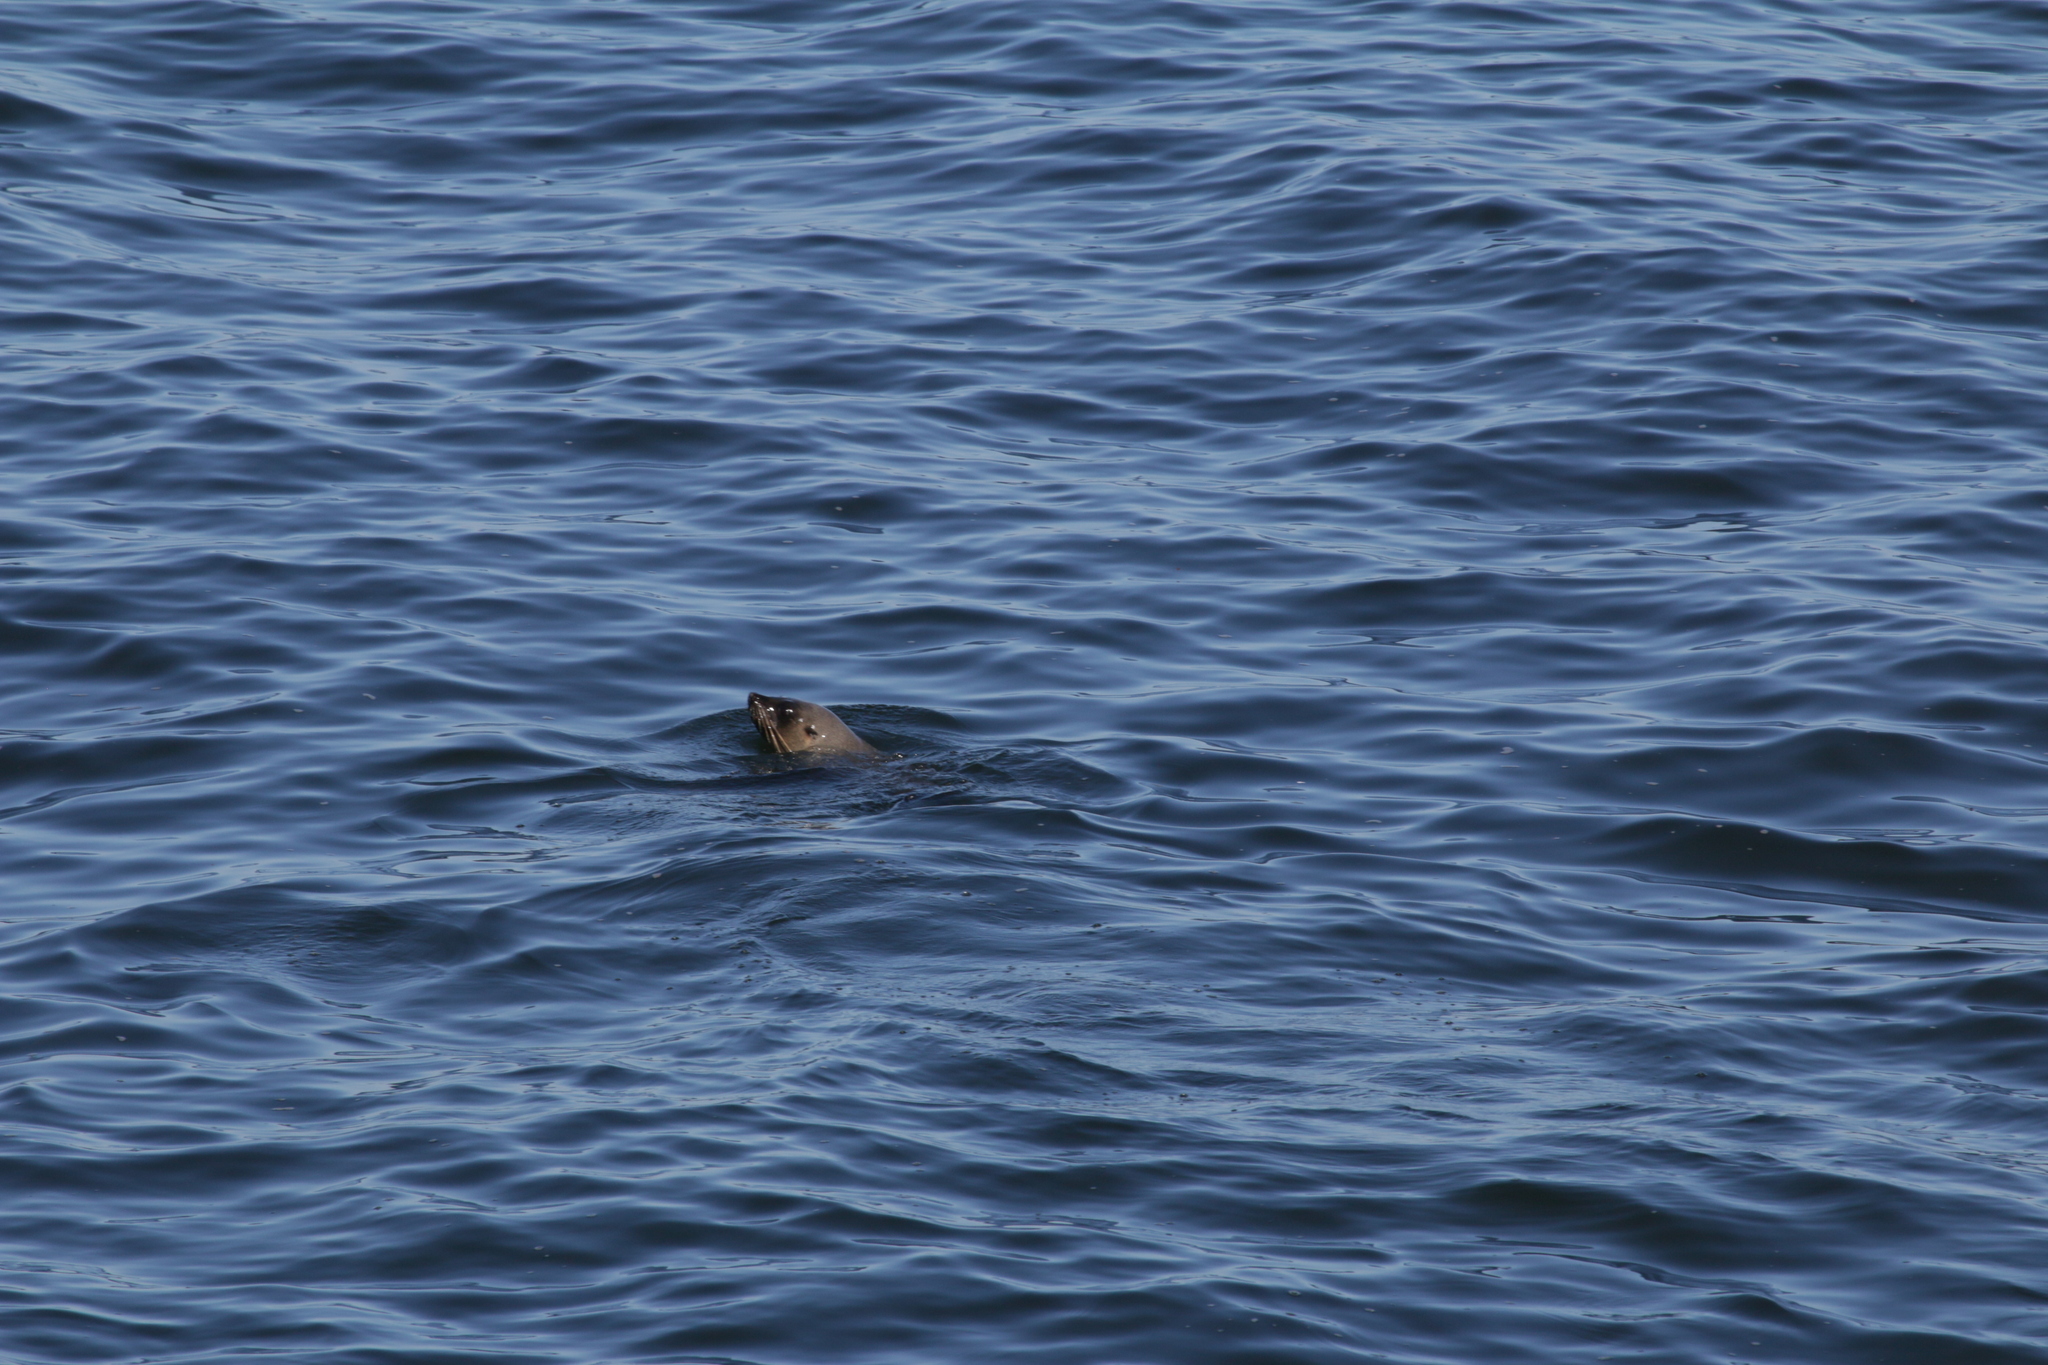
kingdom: Animalia
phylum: Chordata
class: Mammalia
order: Carnivora
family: Otariidae
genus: Arctocephalus
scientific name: Arctocephalus pusillus
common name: Brown fur seal
